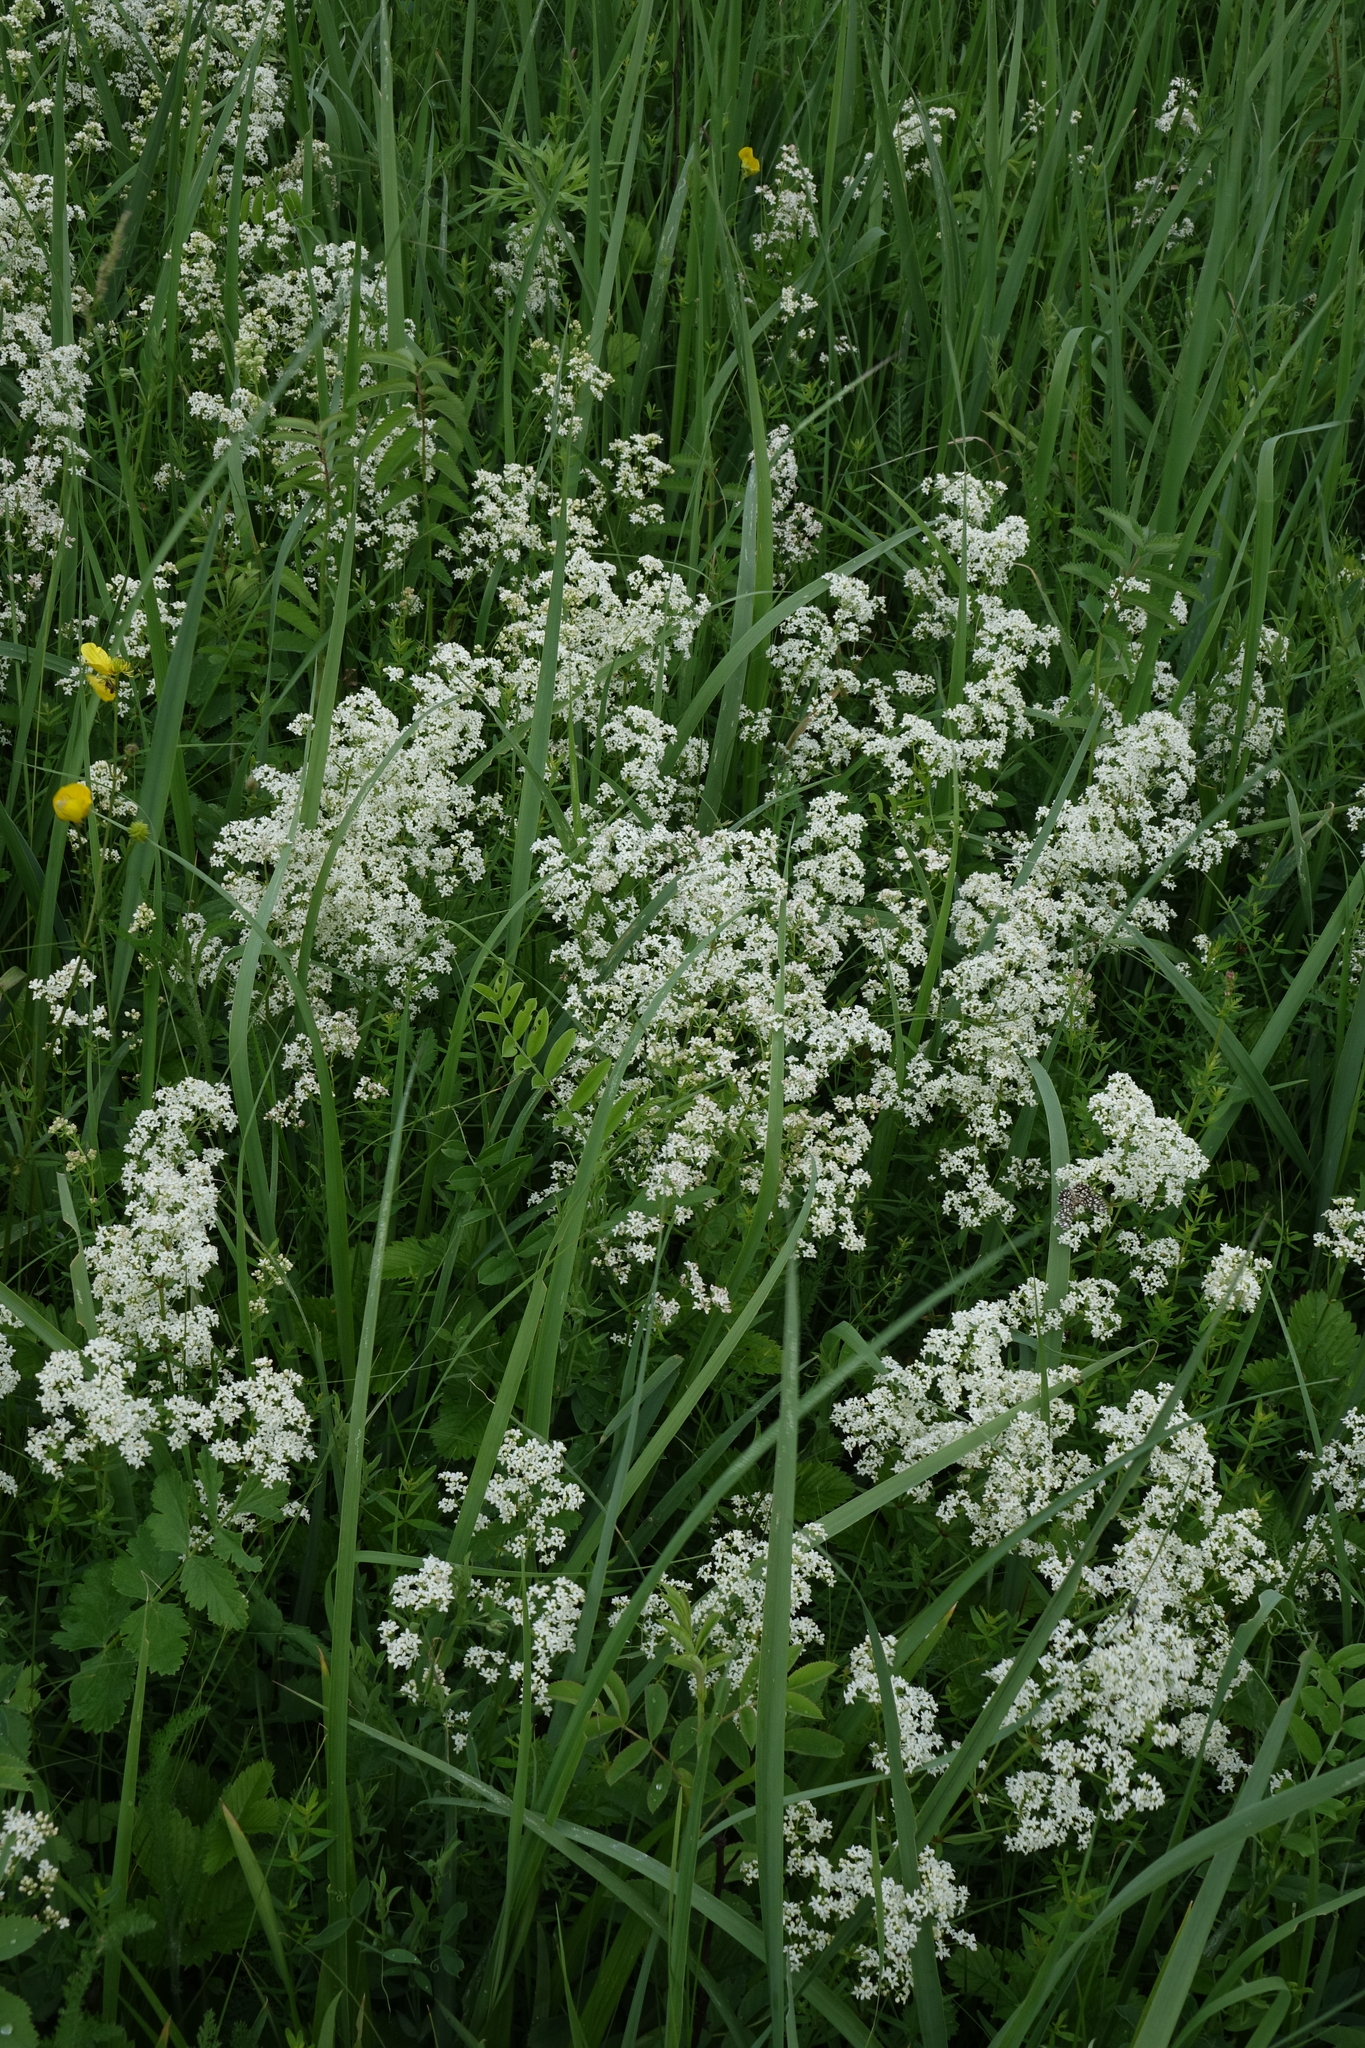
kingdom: Plantae
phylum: Tracheophyta
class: Magnoliopsida
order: Gentianales
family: Rubiaceae
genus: Galium
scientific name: Galium boreale
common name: Northern bedstraw
